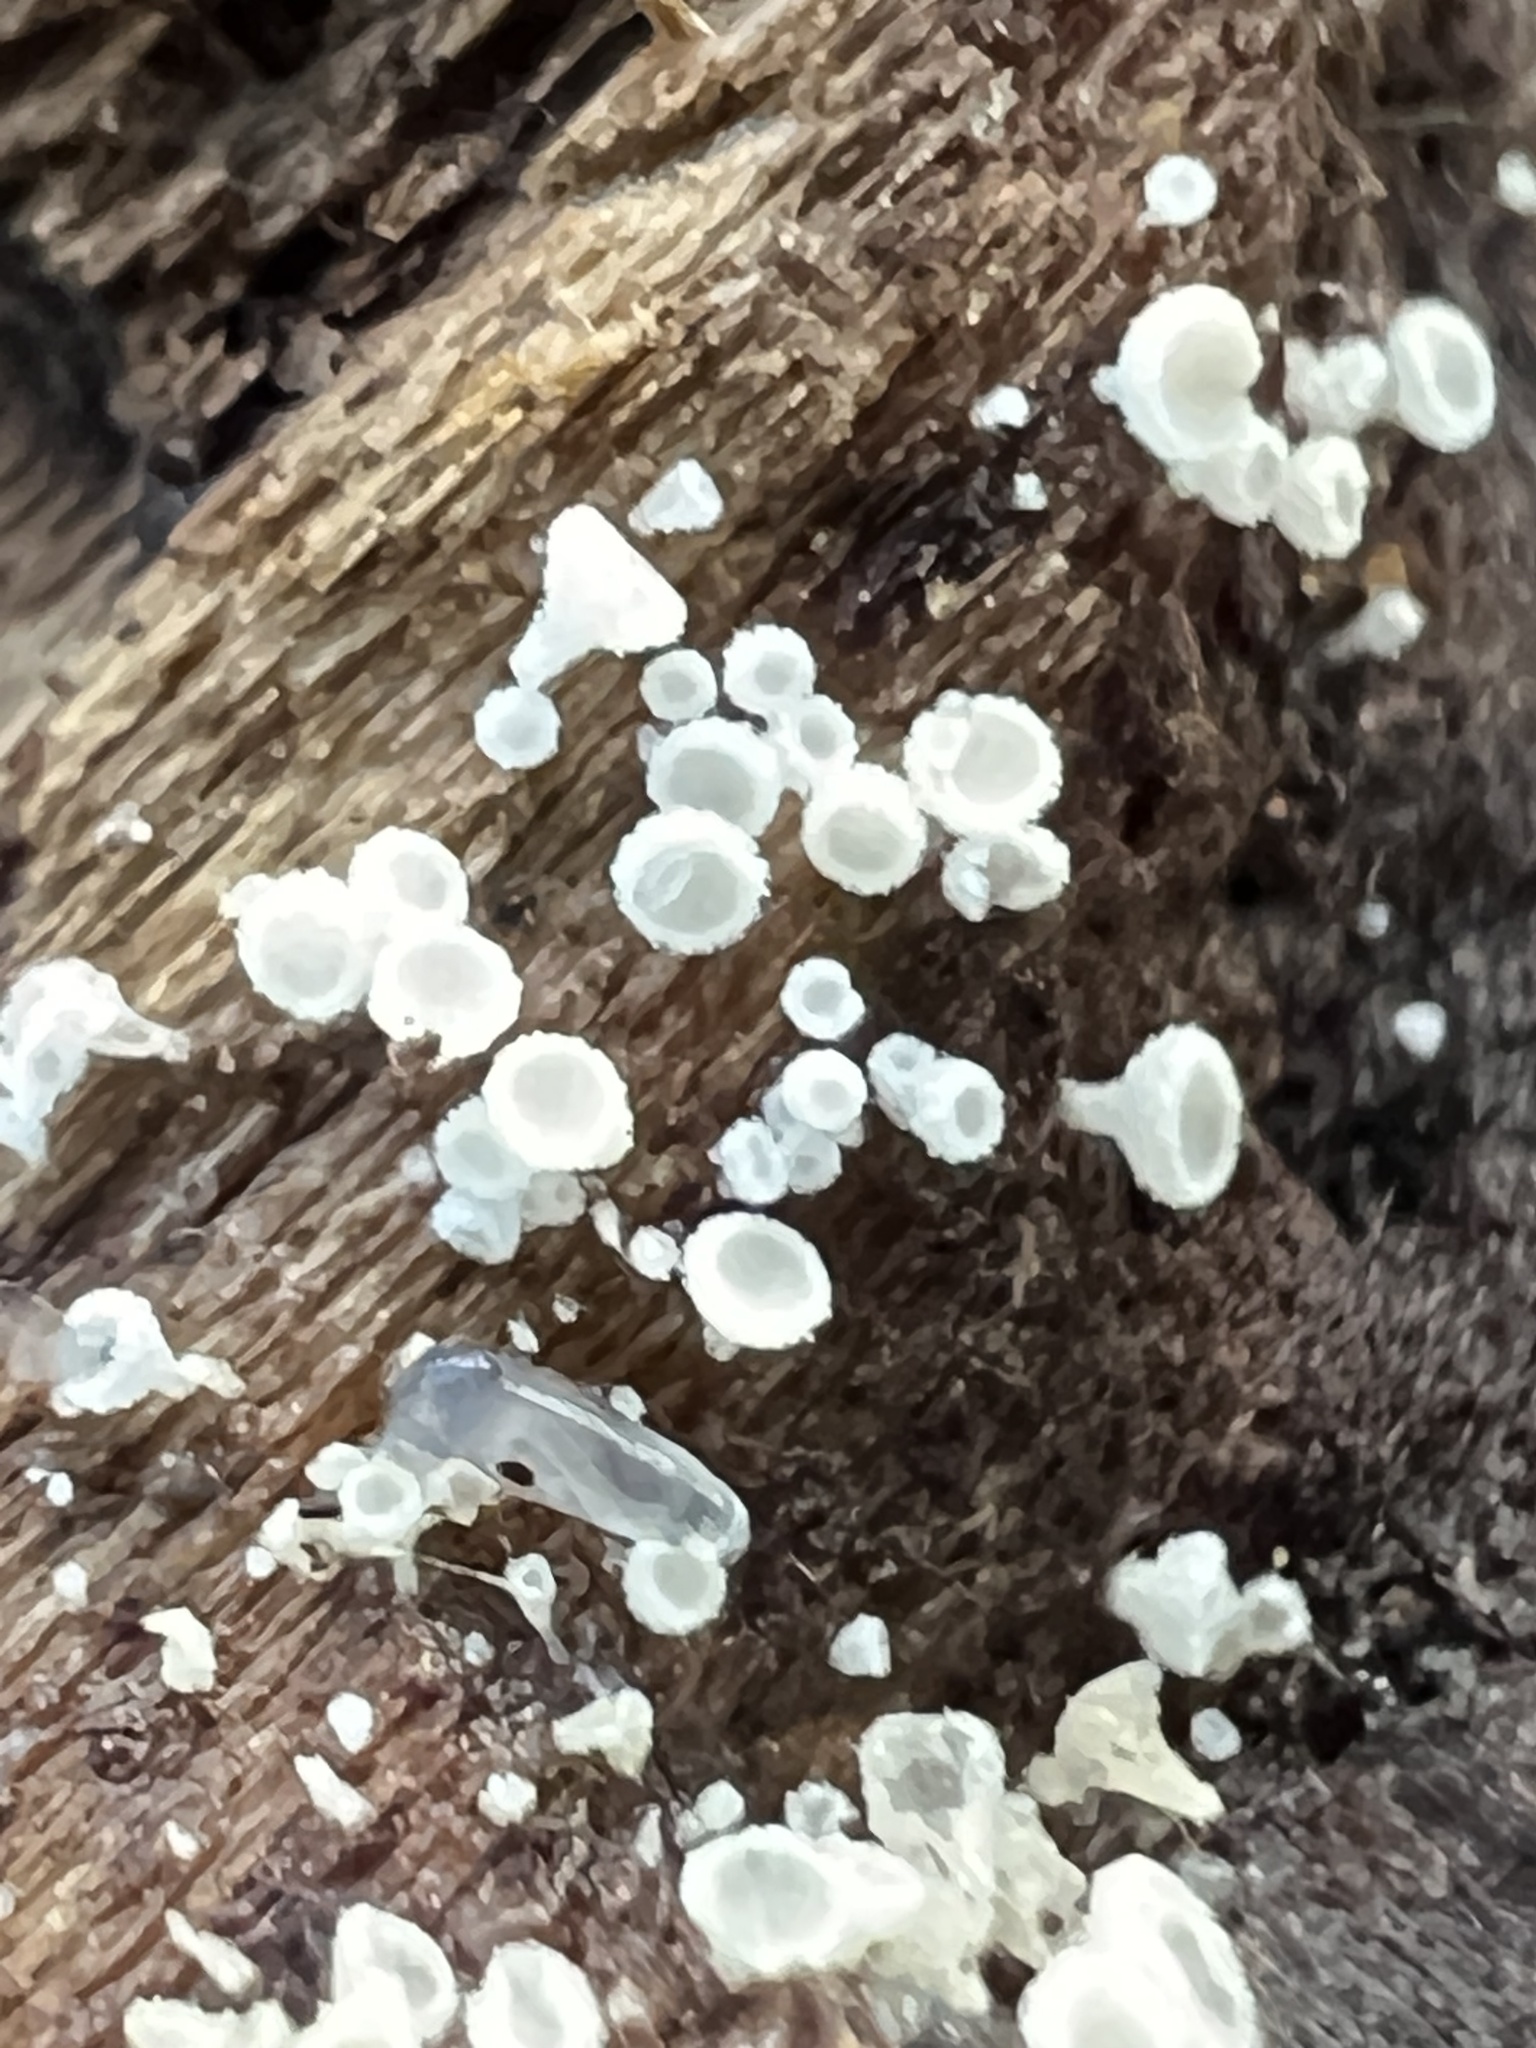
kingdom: Fungi
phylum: Ascomycota
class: Leotiomycetes
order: Helotiales
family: Lachnaceae
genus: Lachnum
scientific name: Lachnum virgineum
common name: Snowy disco
